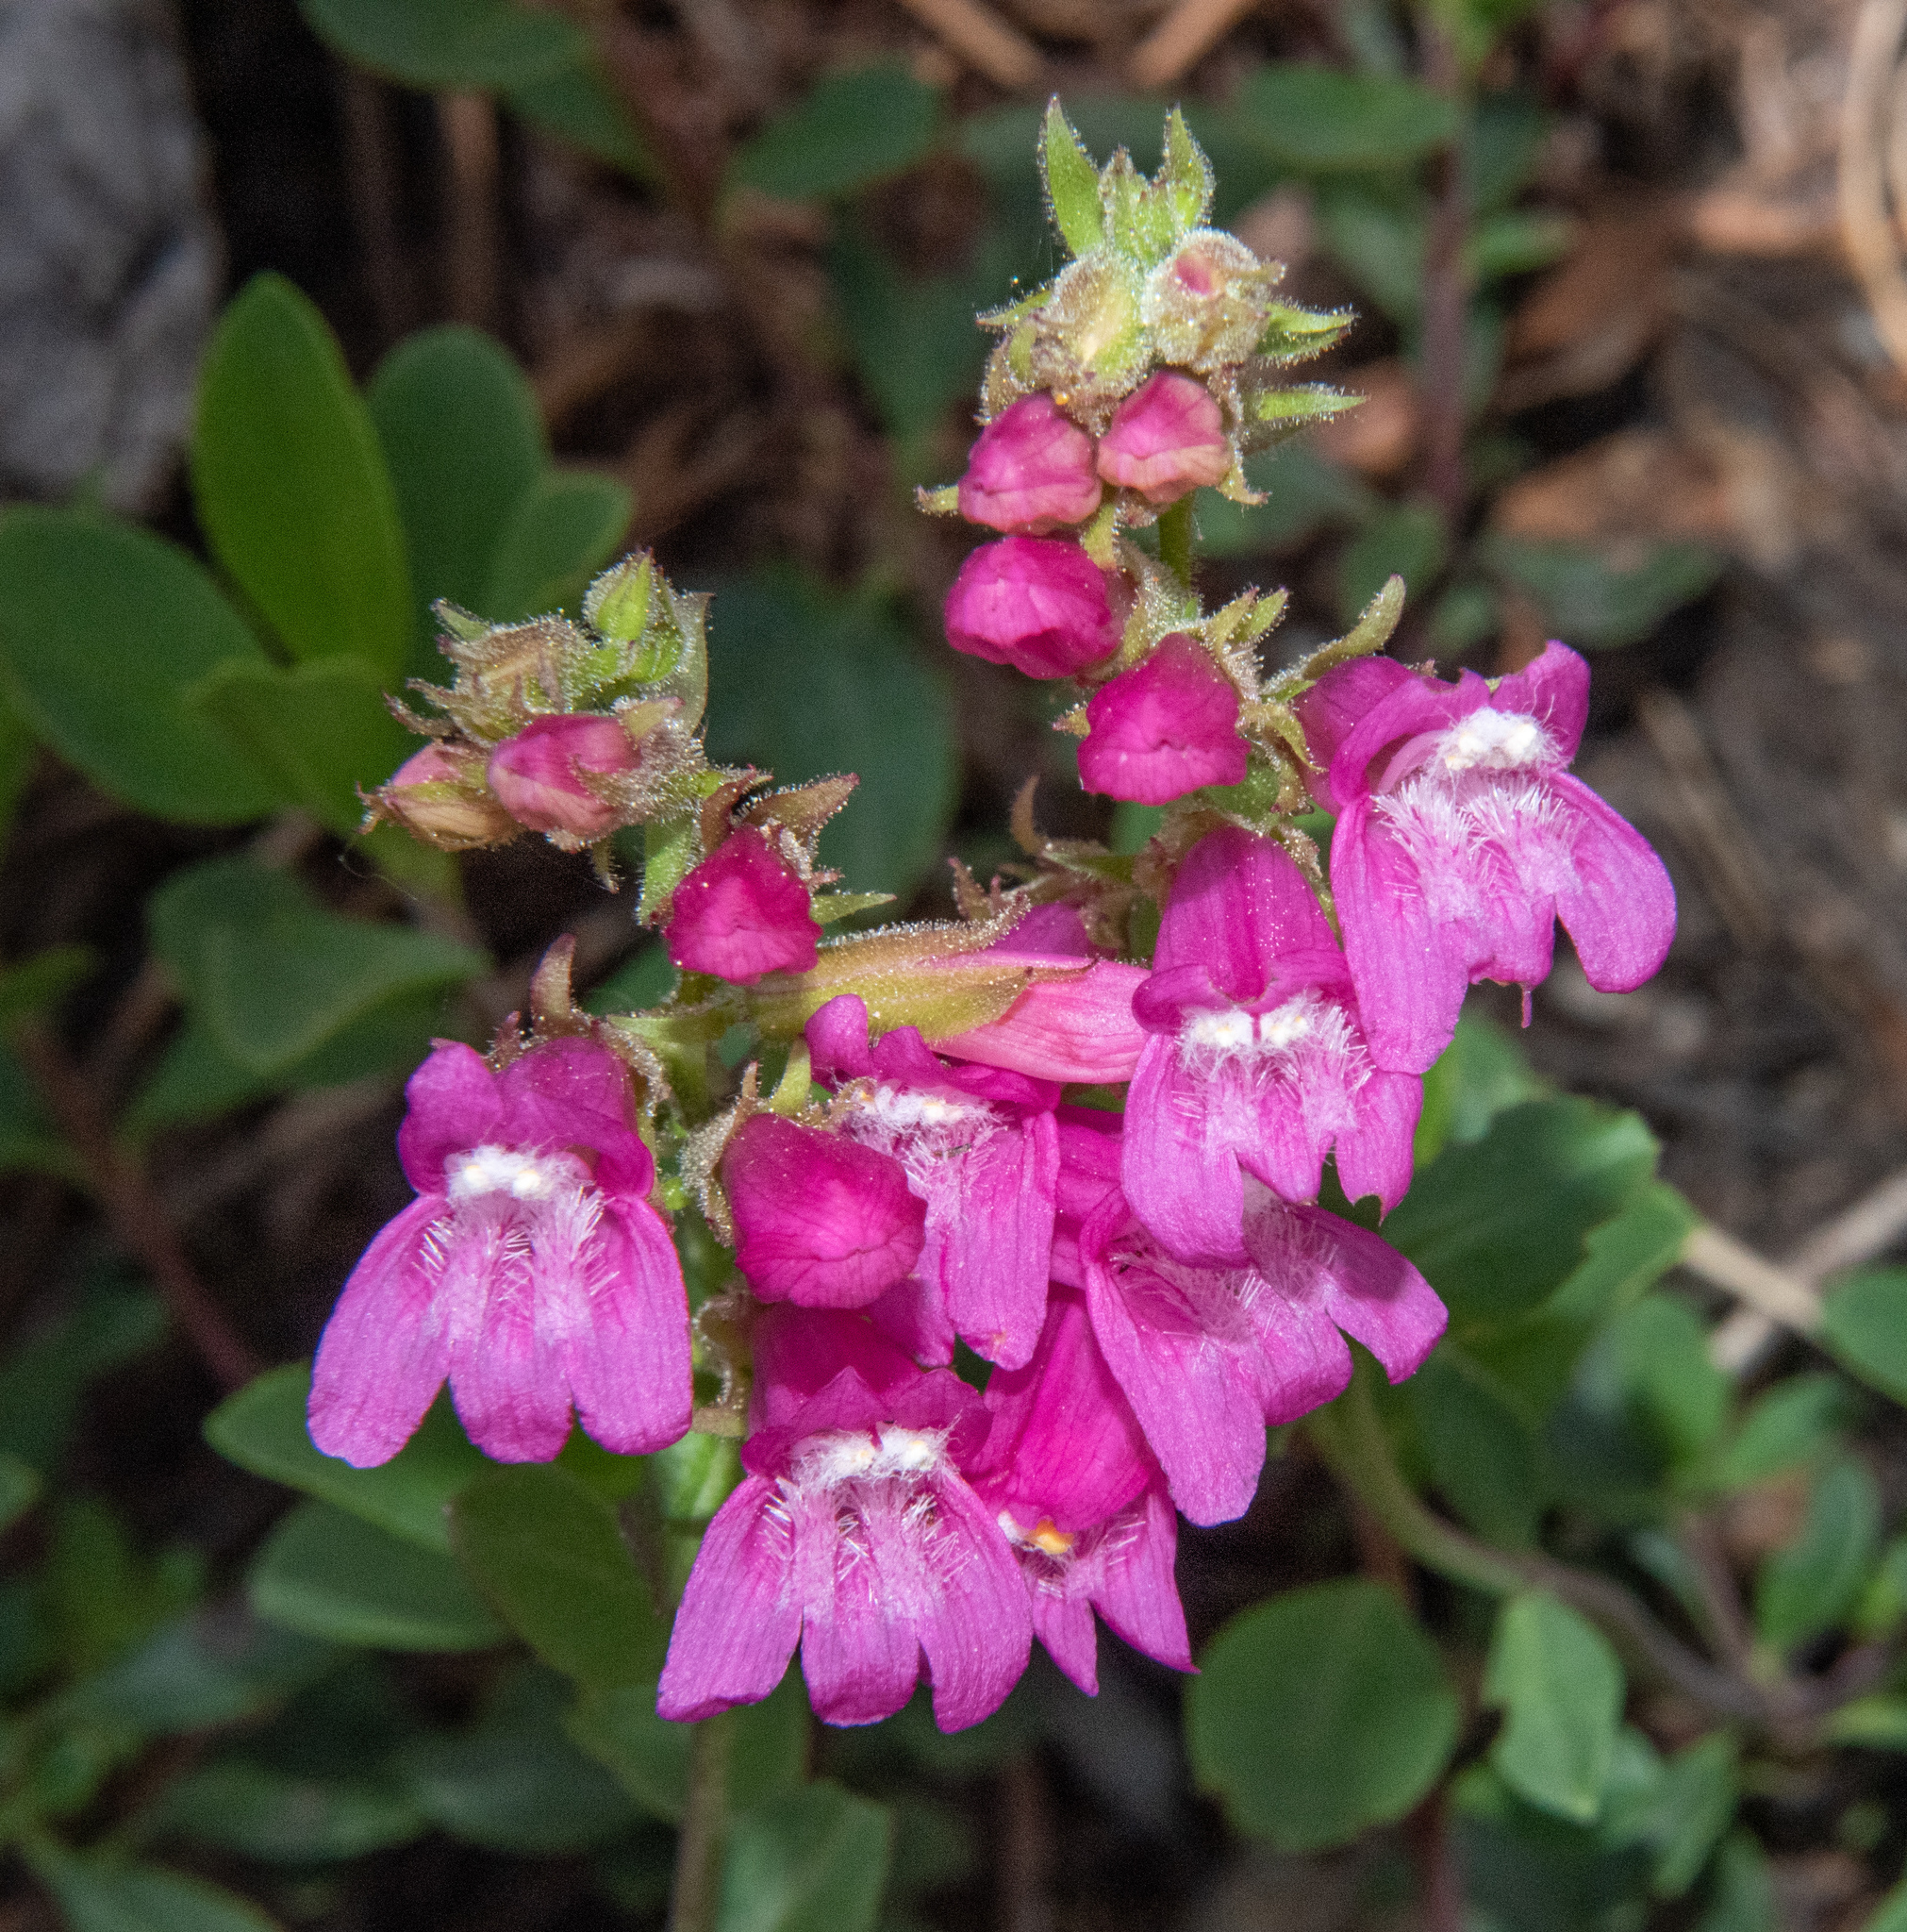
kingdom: Plantae
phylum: Tracheophyta
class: Magnoliopsida
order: Lamiales
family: Plantaginaceae
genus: Penstemon
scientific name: Penstemon newberryi
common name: Mountain-pride
